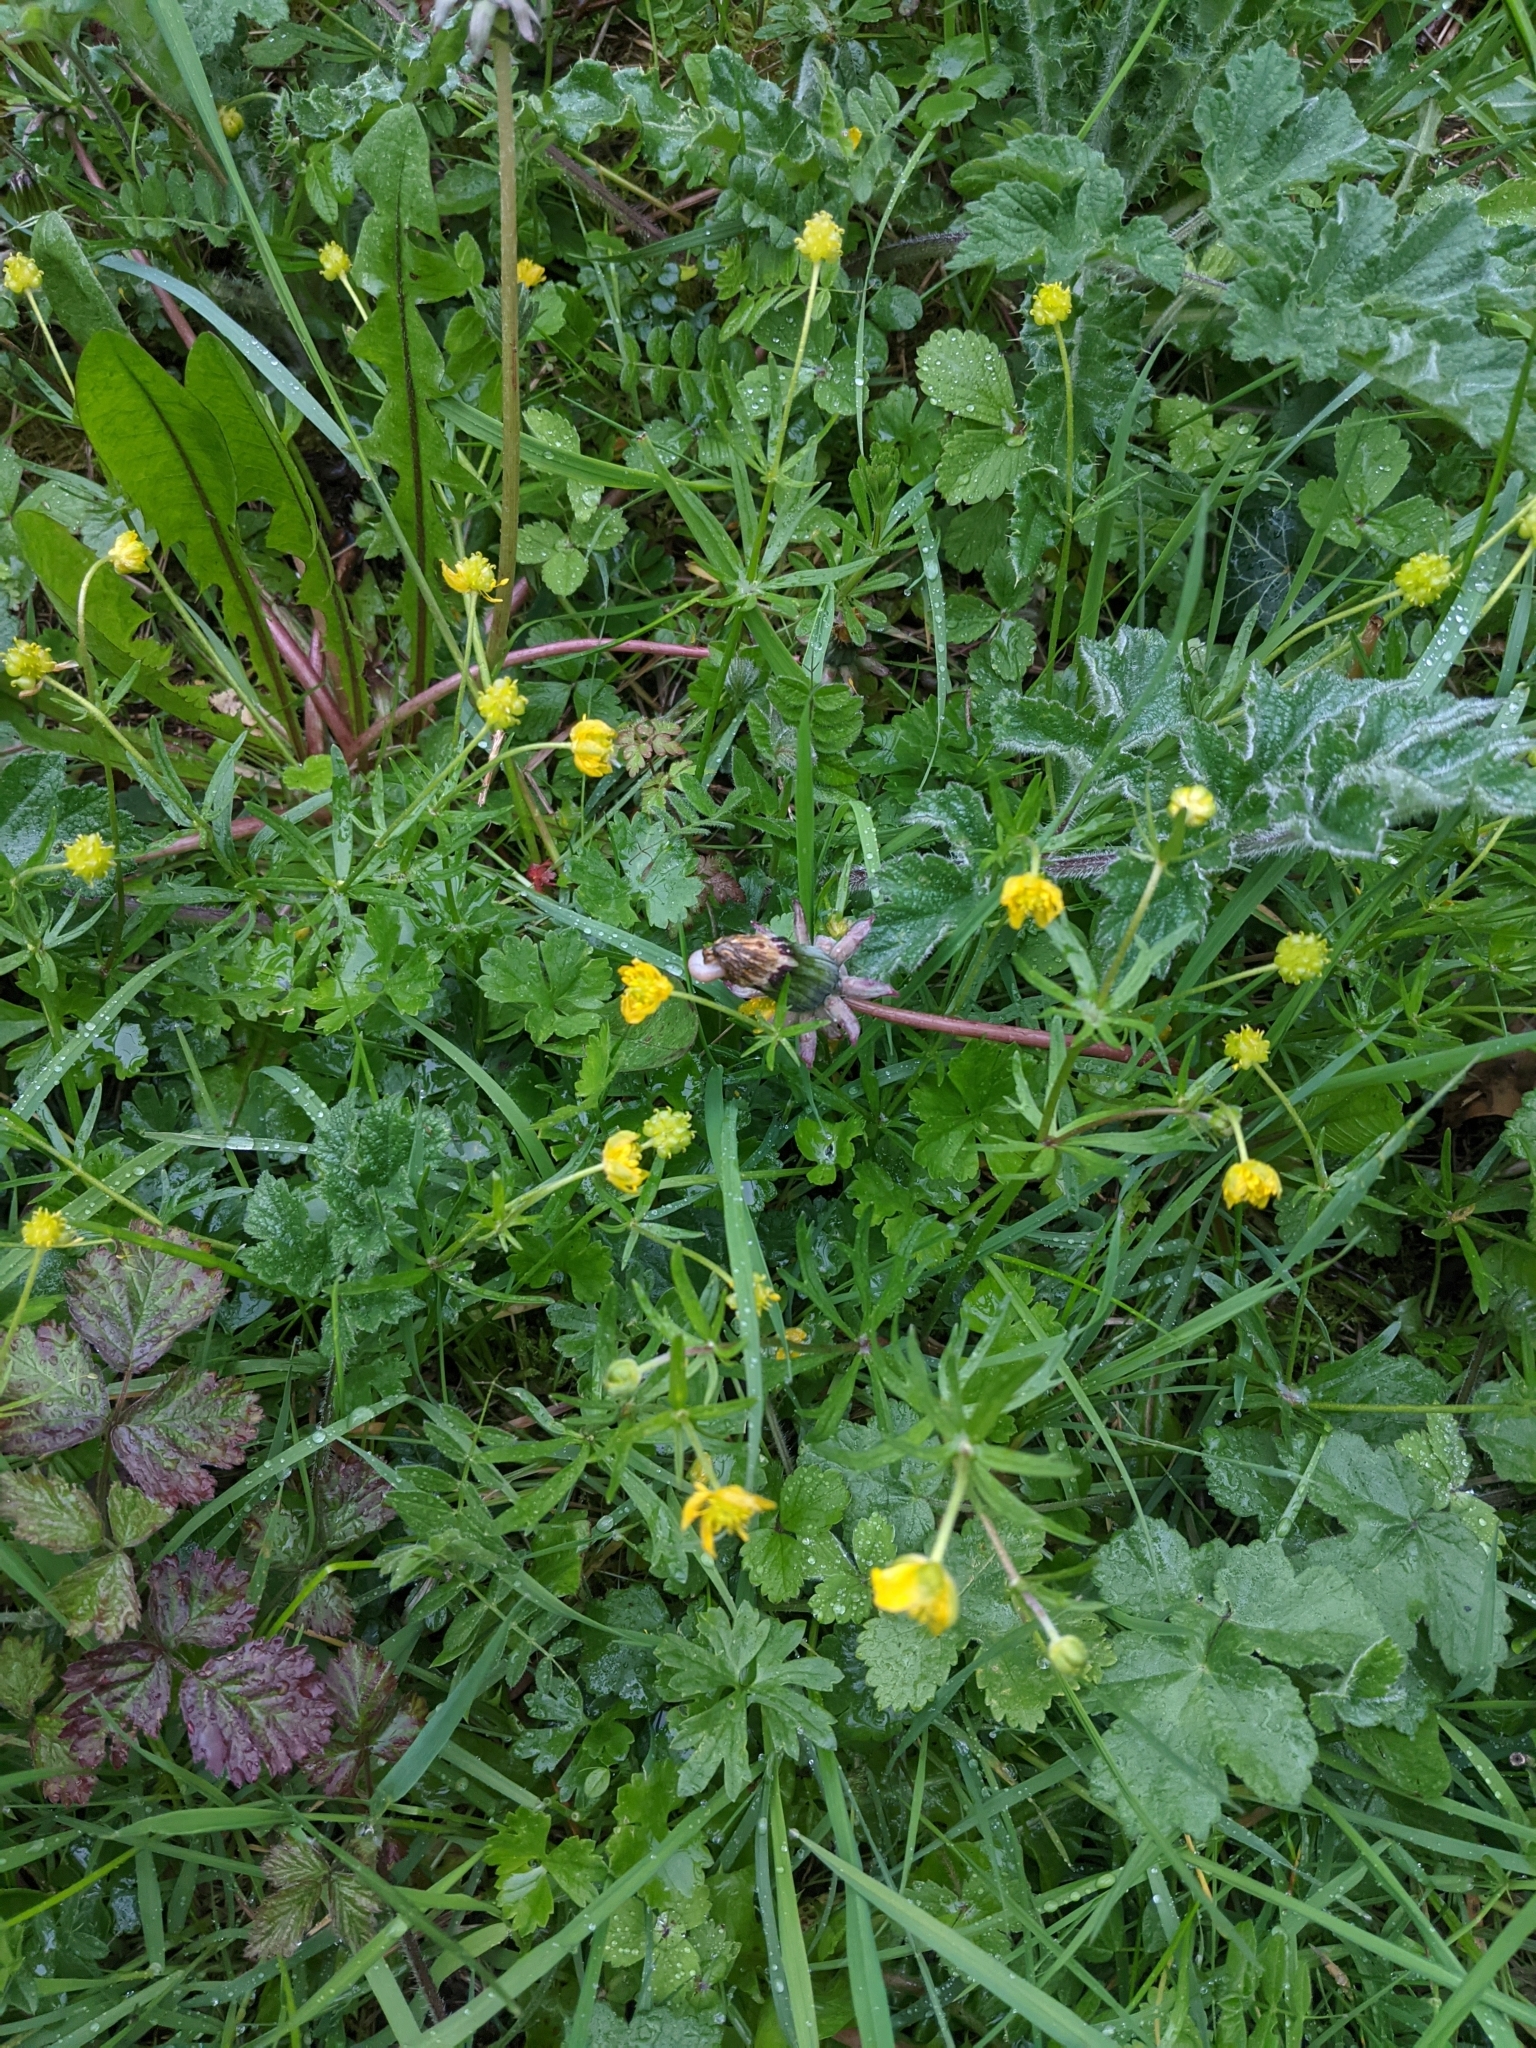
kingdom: Plantae
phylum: Tracheophyta
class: Magnoliopsida
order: Ranunculales
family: Ranunculaceae
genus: Ranunculus
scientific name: Ranunculus auricomus
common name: Goldilocks buttercup
